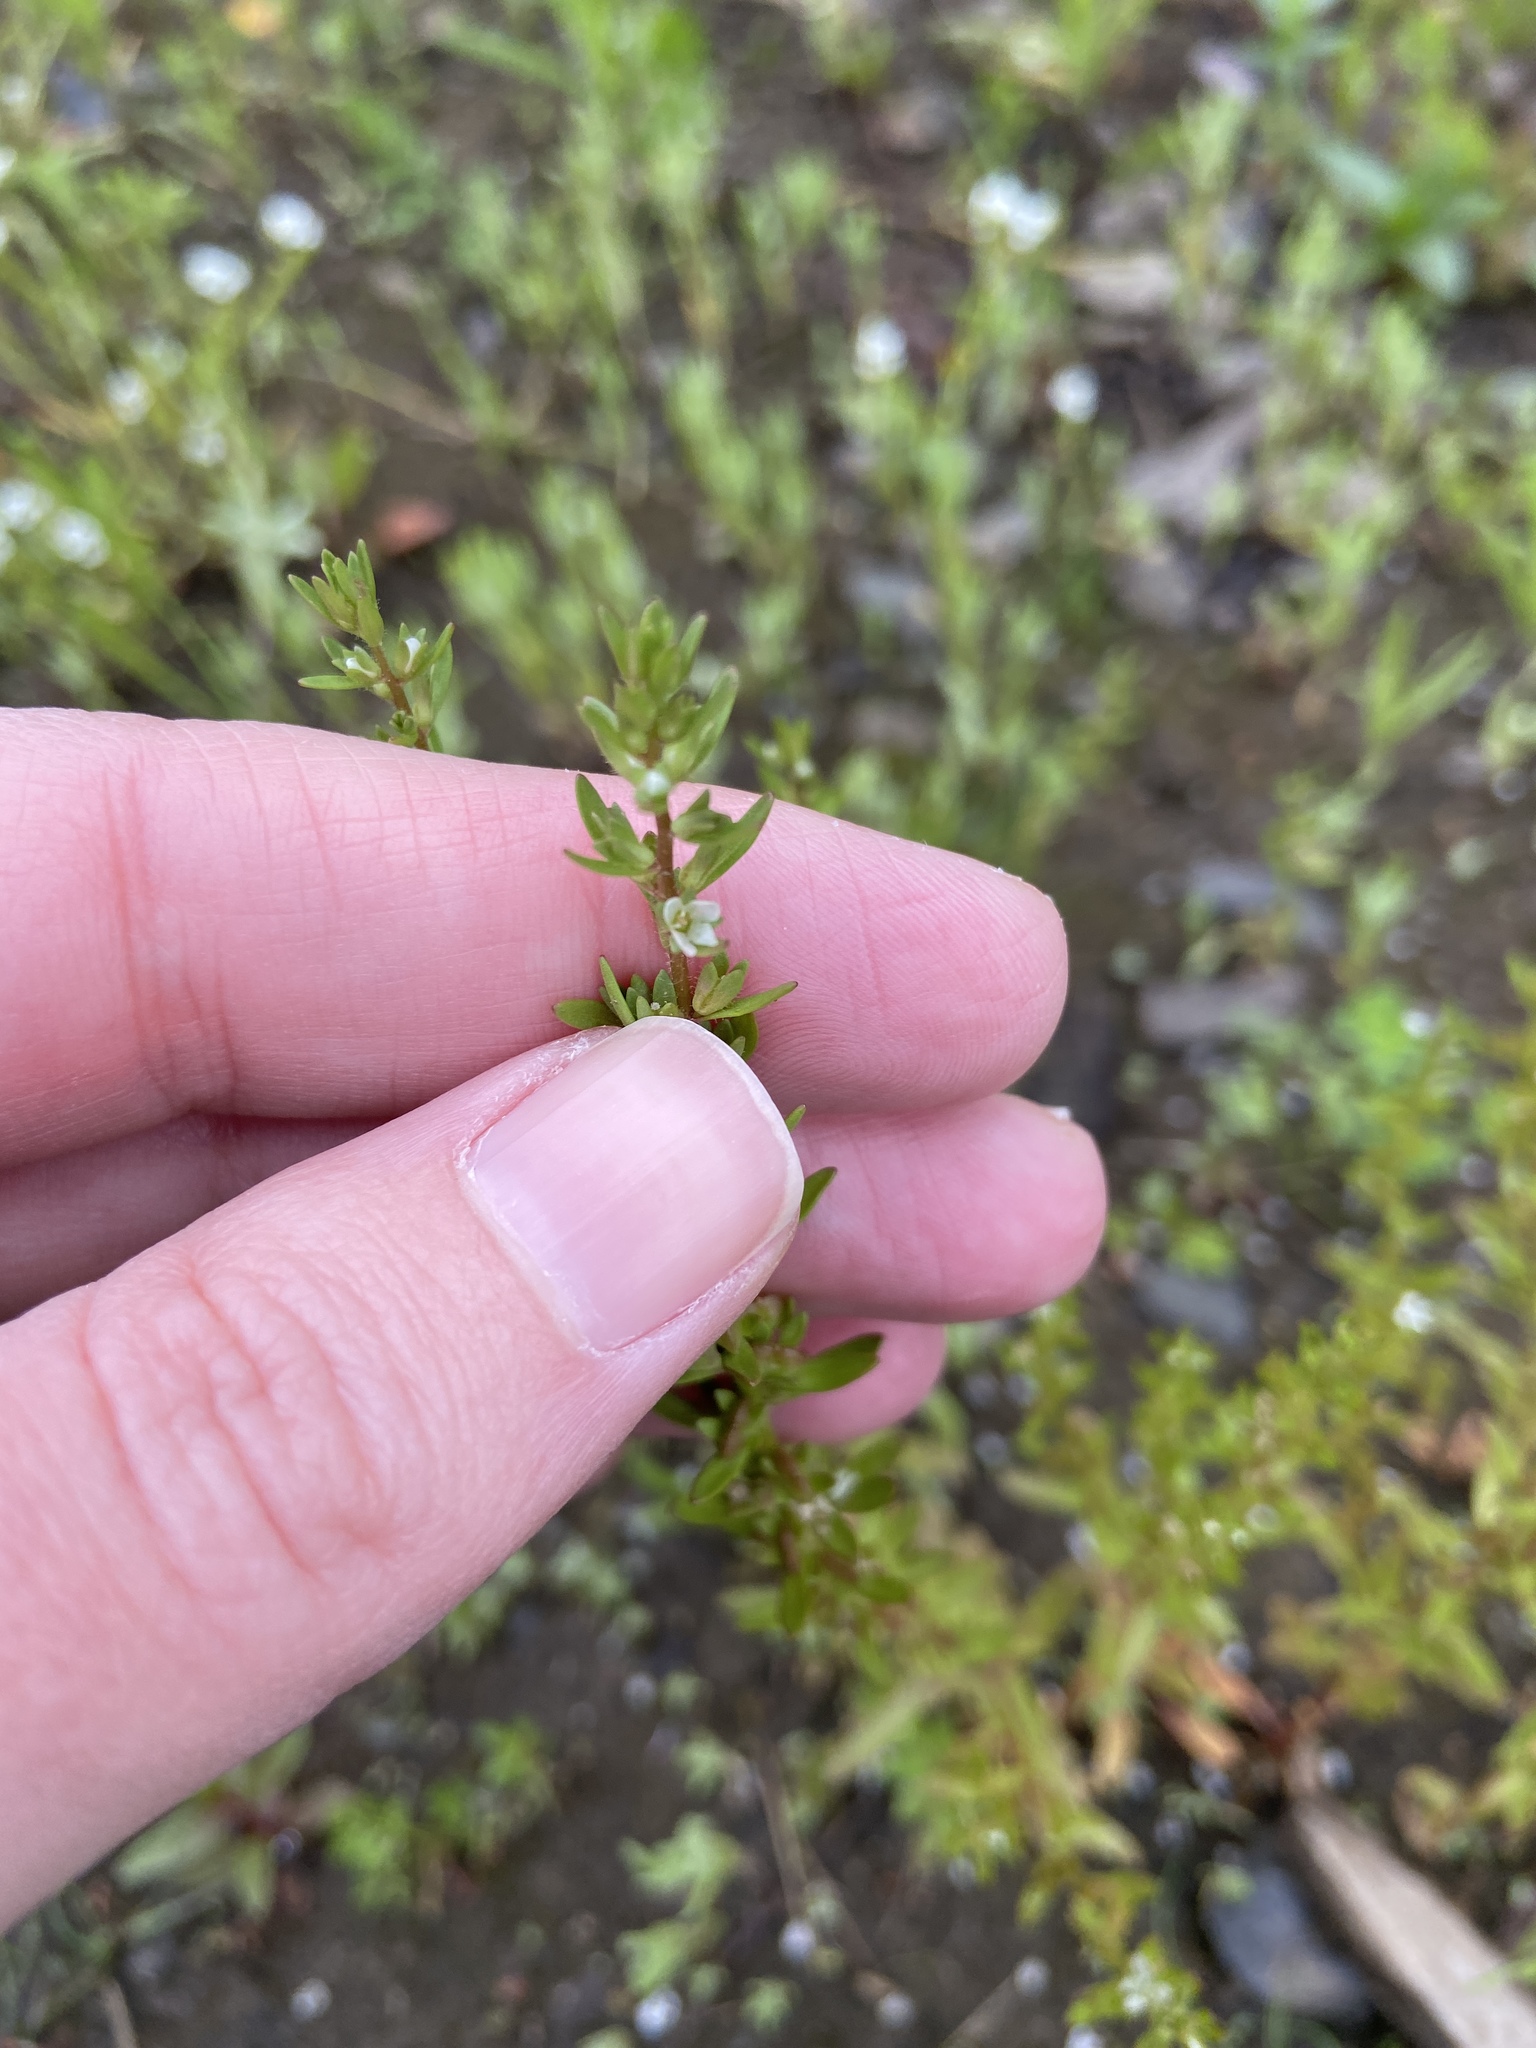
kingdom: Plantae
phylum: Tracheophyta
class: Magnoliopsida
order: Lamiales
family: Plantaginaceae
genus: Veronica
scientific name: Veronica peregrina
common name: Neckweed
